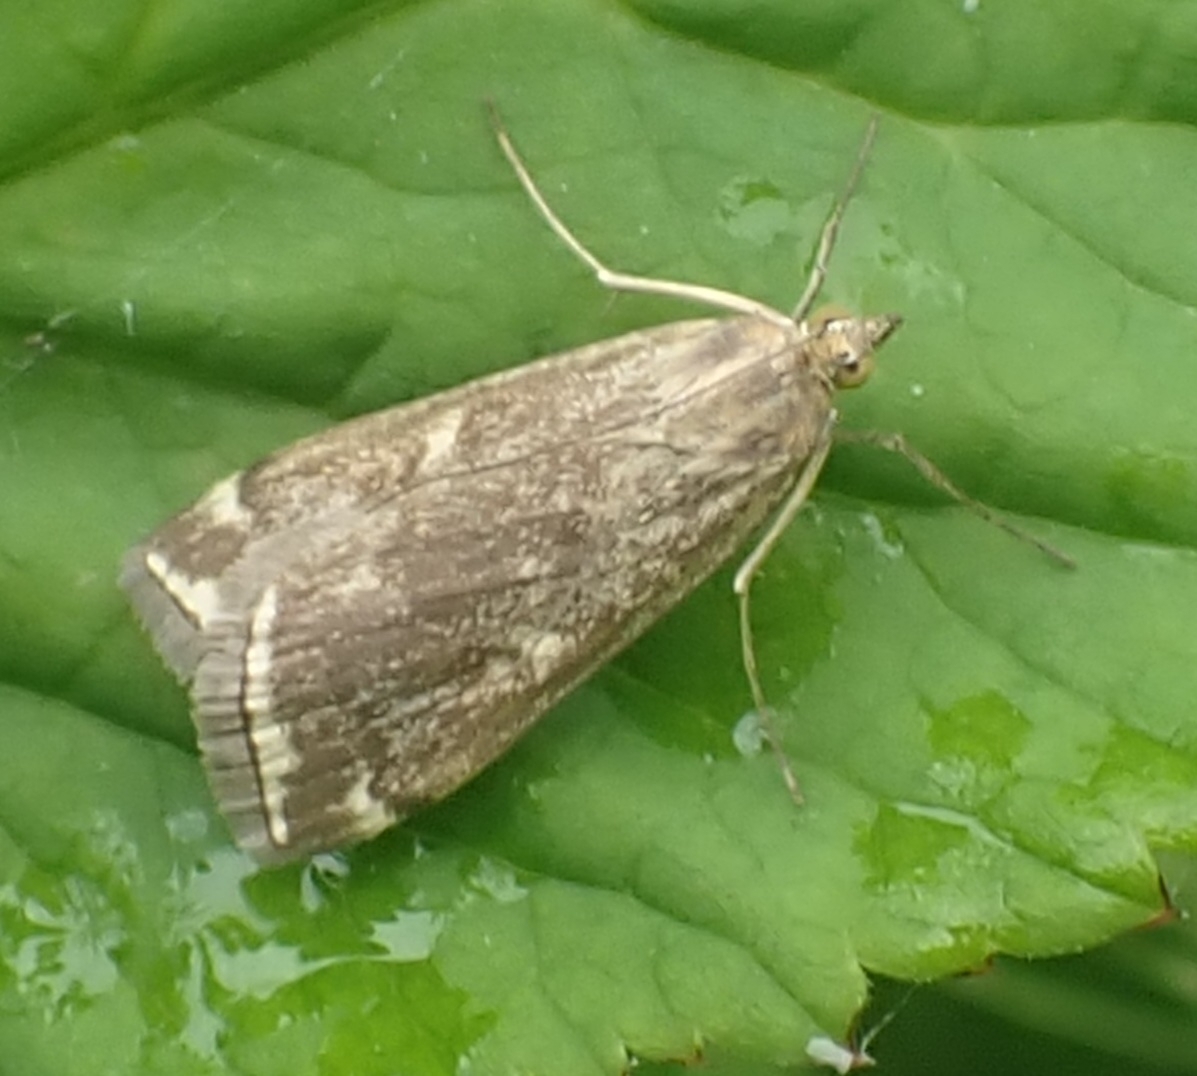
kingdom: Animalia
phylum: Arthropoda
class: Insecta
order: Lepidoptera
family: Crambidae
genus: Loxostege
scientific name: Loxostege sticticalis
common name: Crambid moth
